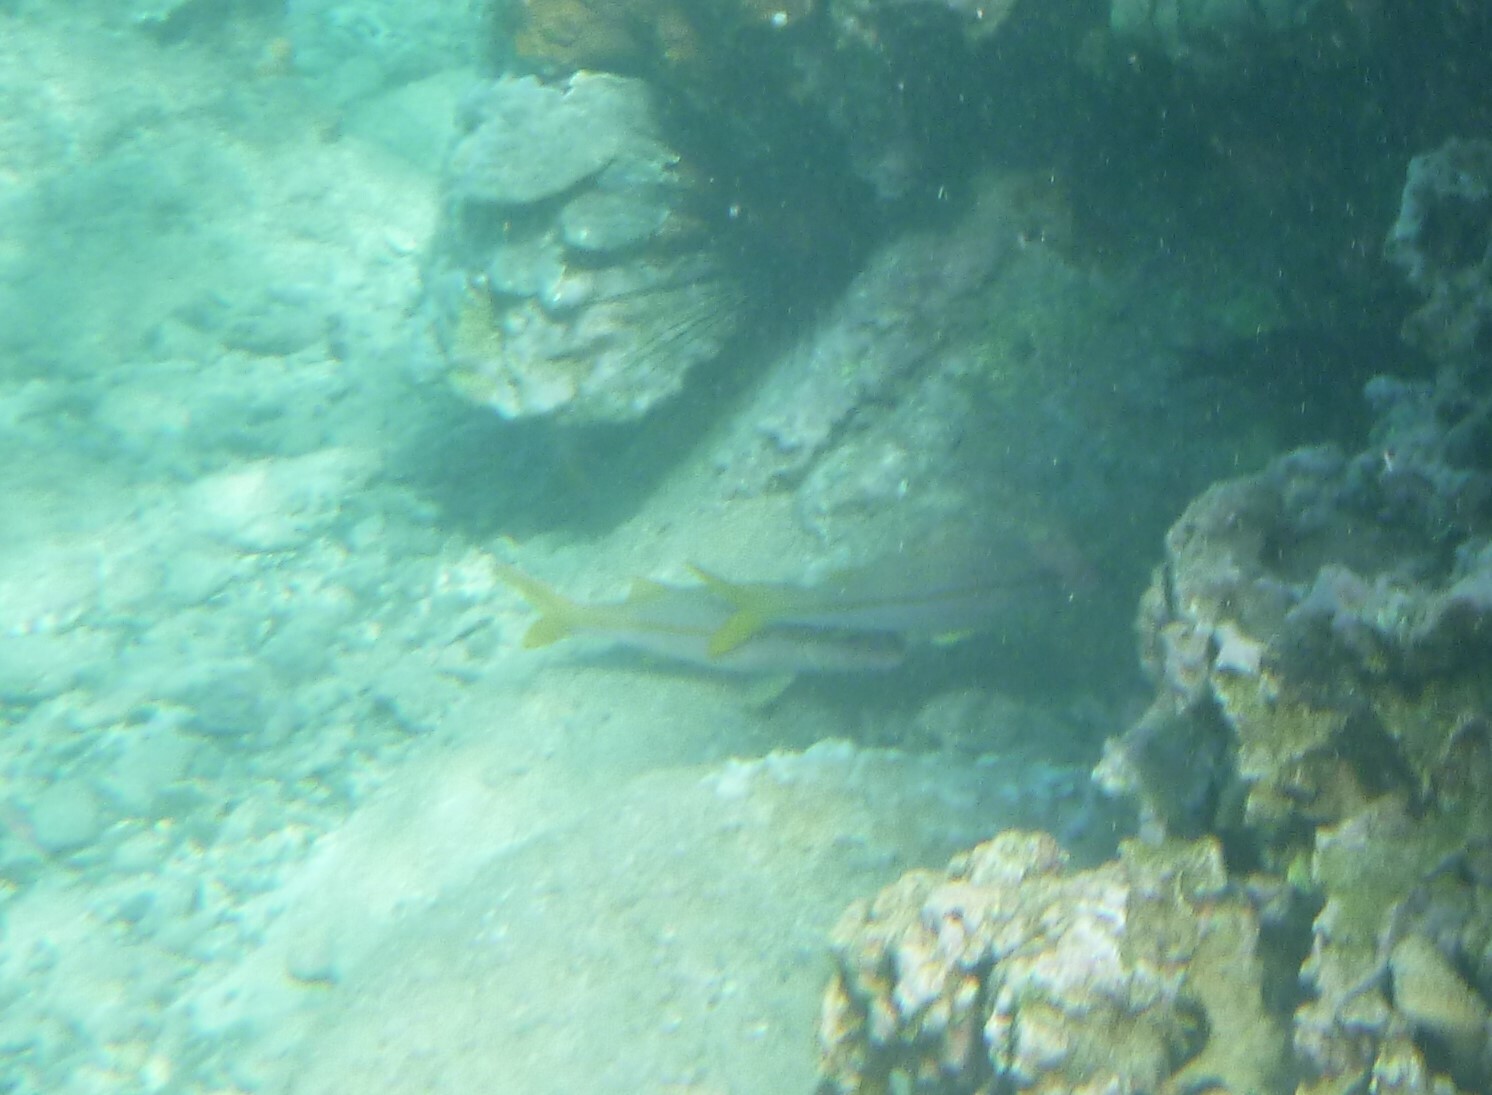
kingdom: Animalia
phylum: Chordata
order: Perciformes
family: Mullidae
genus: Mulloidichthys
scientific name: Mulloidichthys vanicolensis
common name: Yellowfin goatfish
